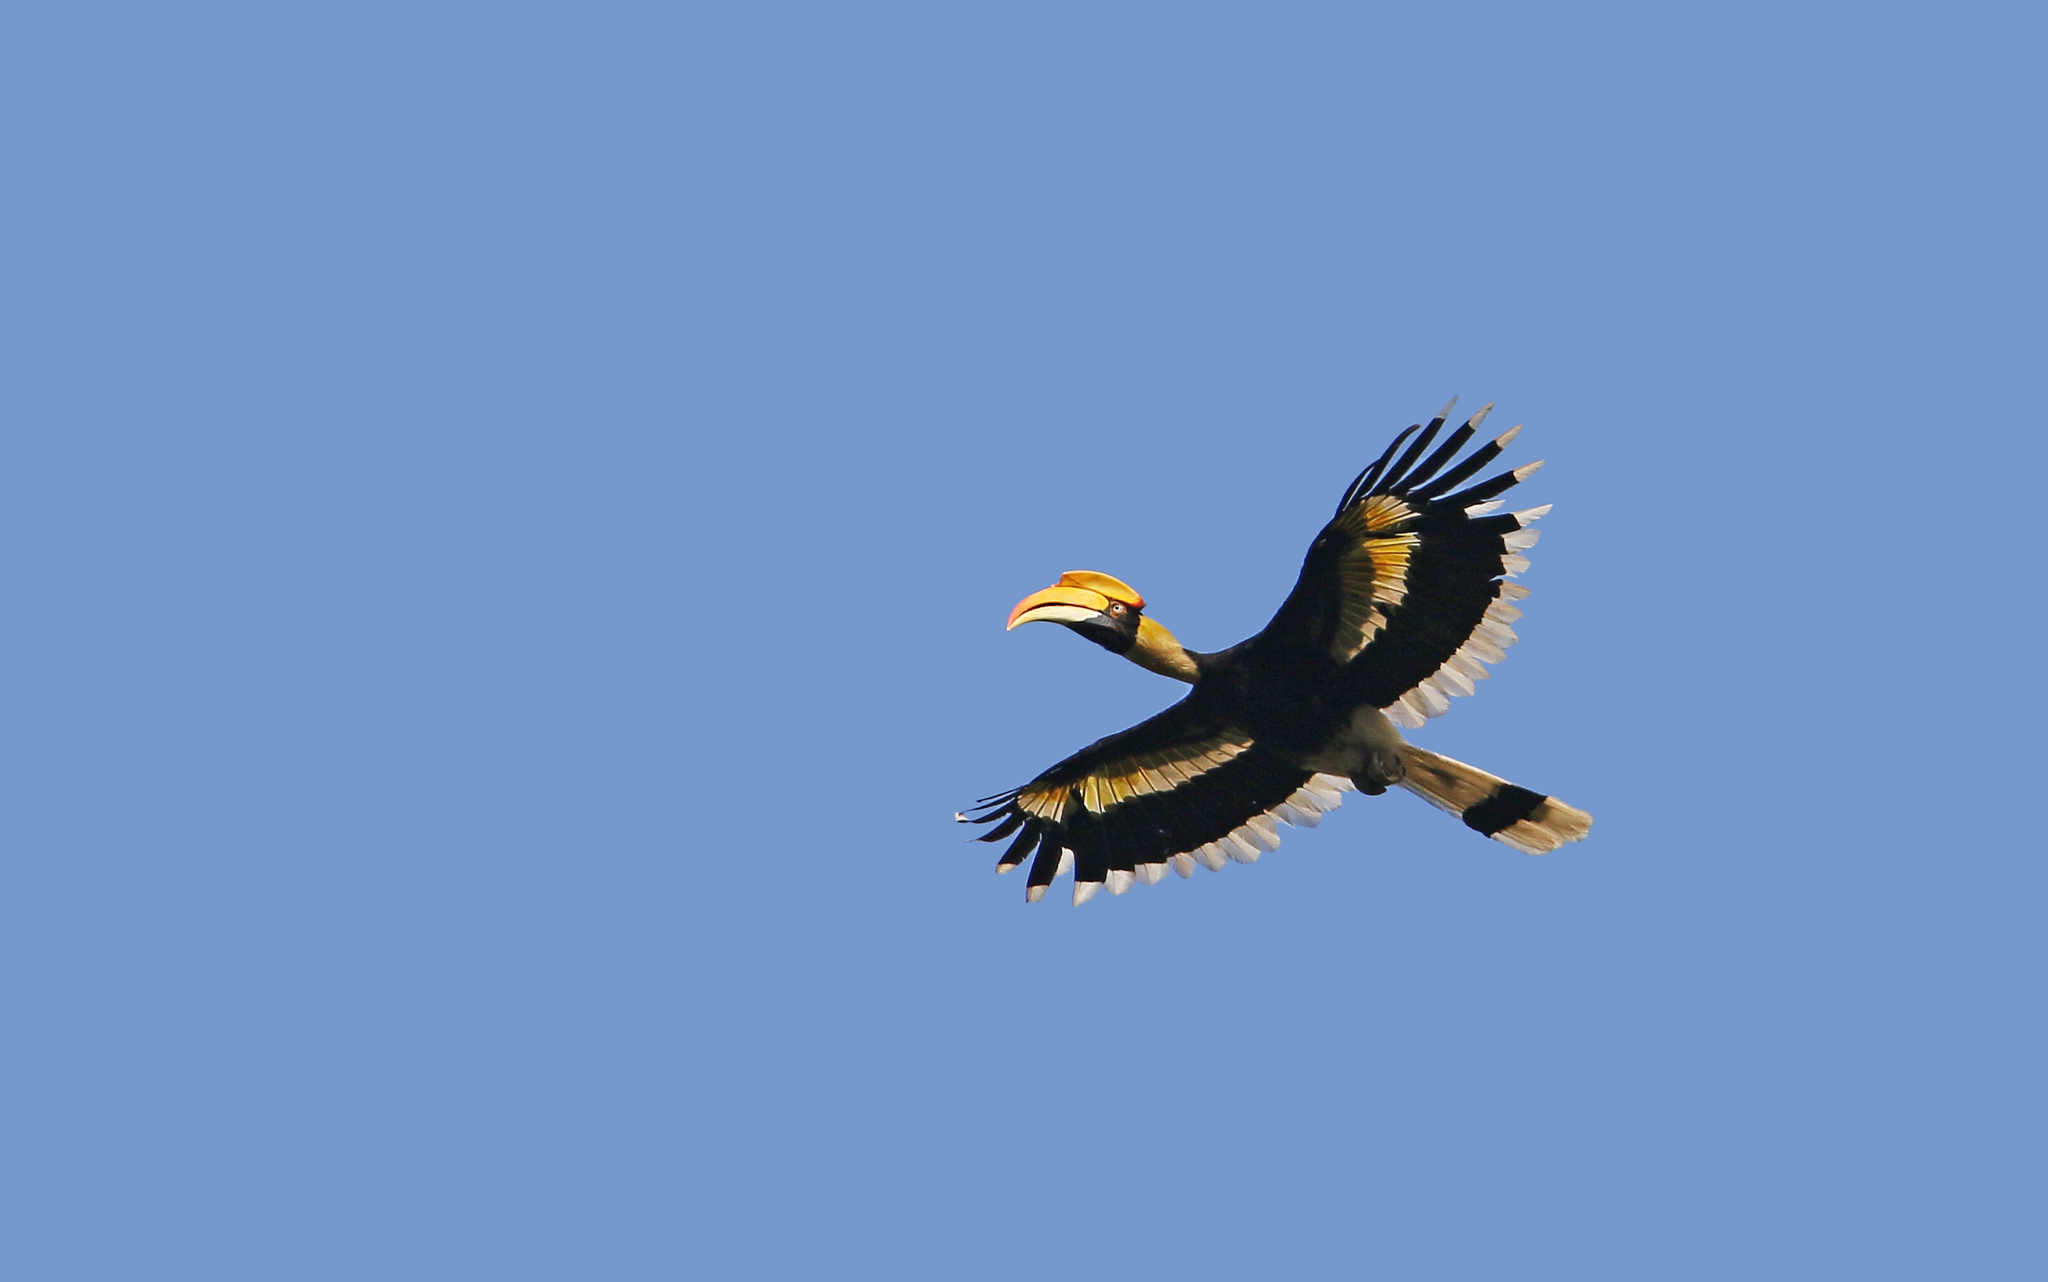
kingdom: Animalia
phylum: Chordata
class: Aves
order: Bucerotiformes
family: Bucerotidae
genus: Buceros
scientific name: Buceros bicornis
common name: Great hornbill
